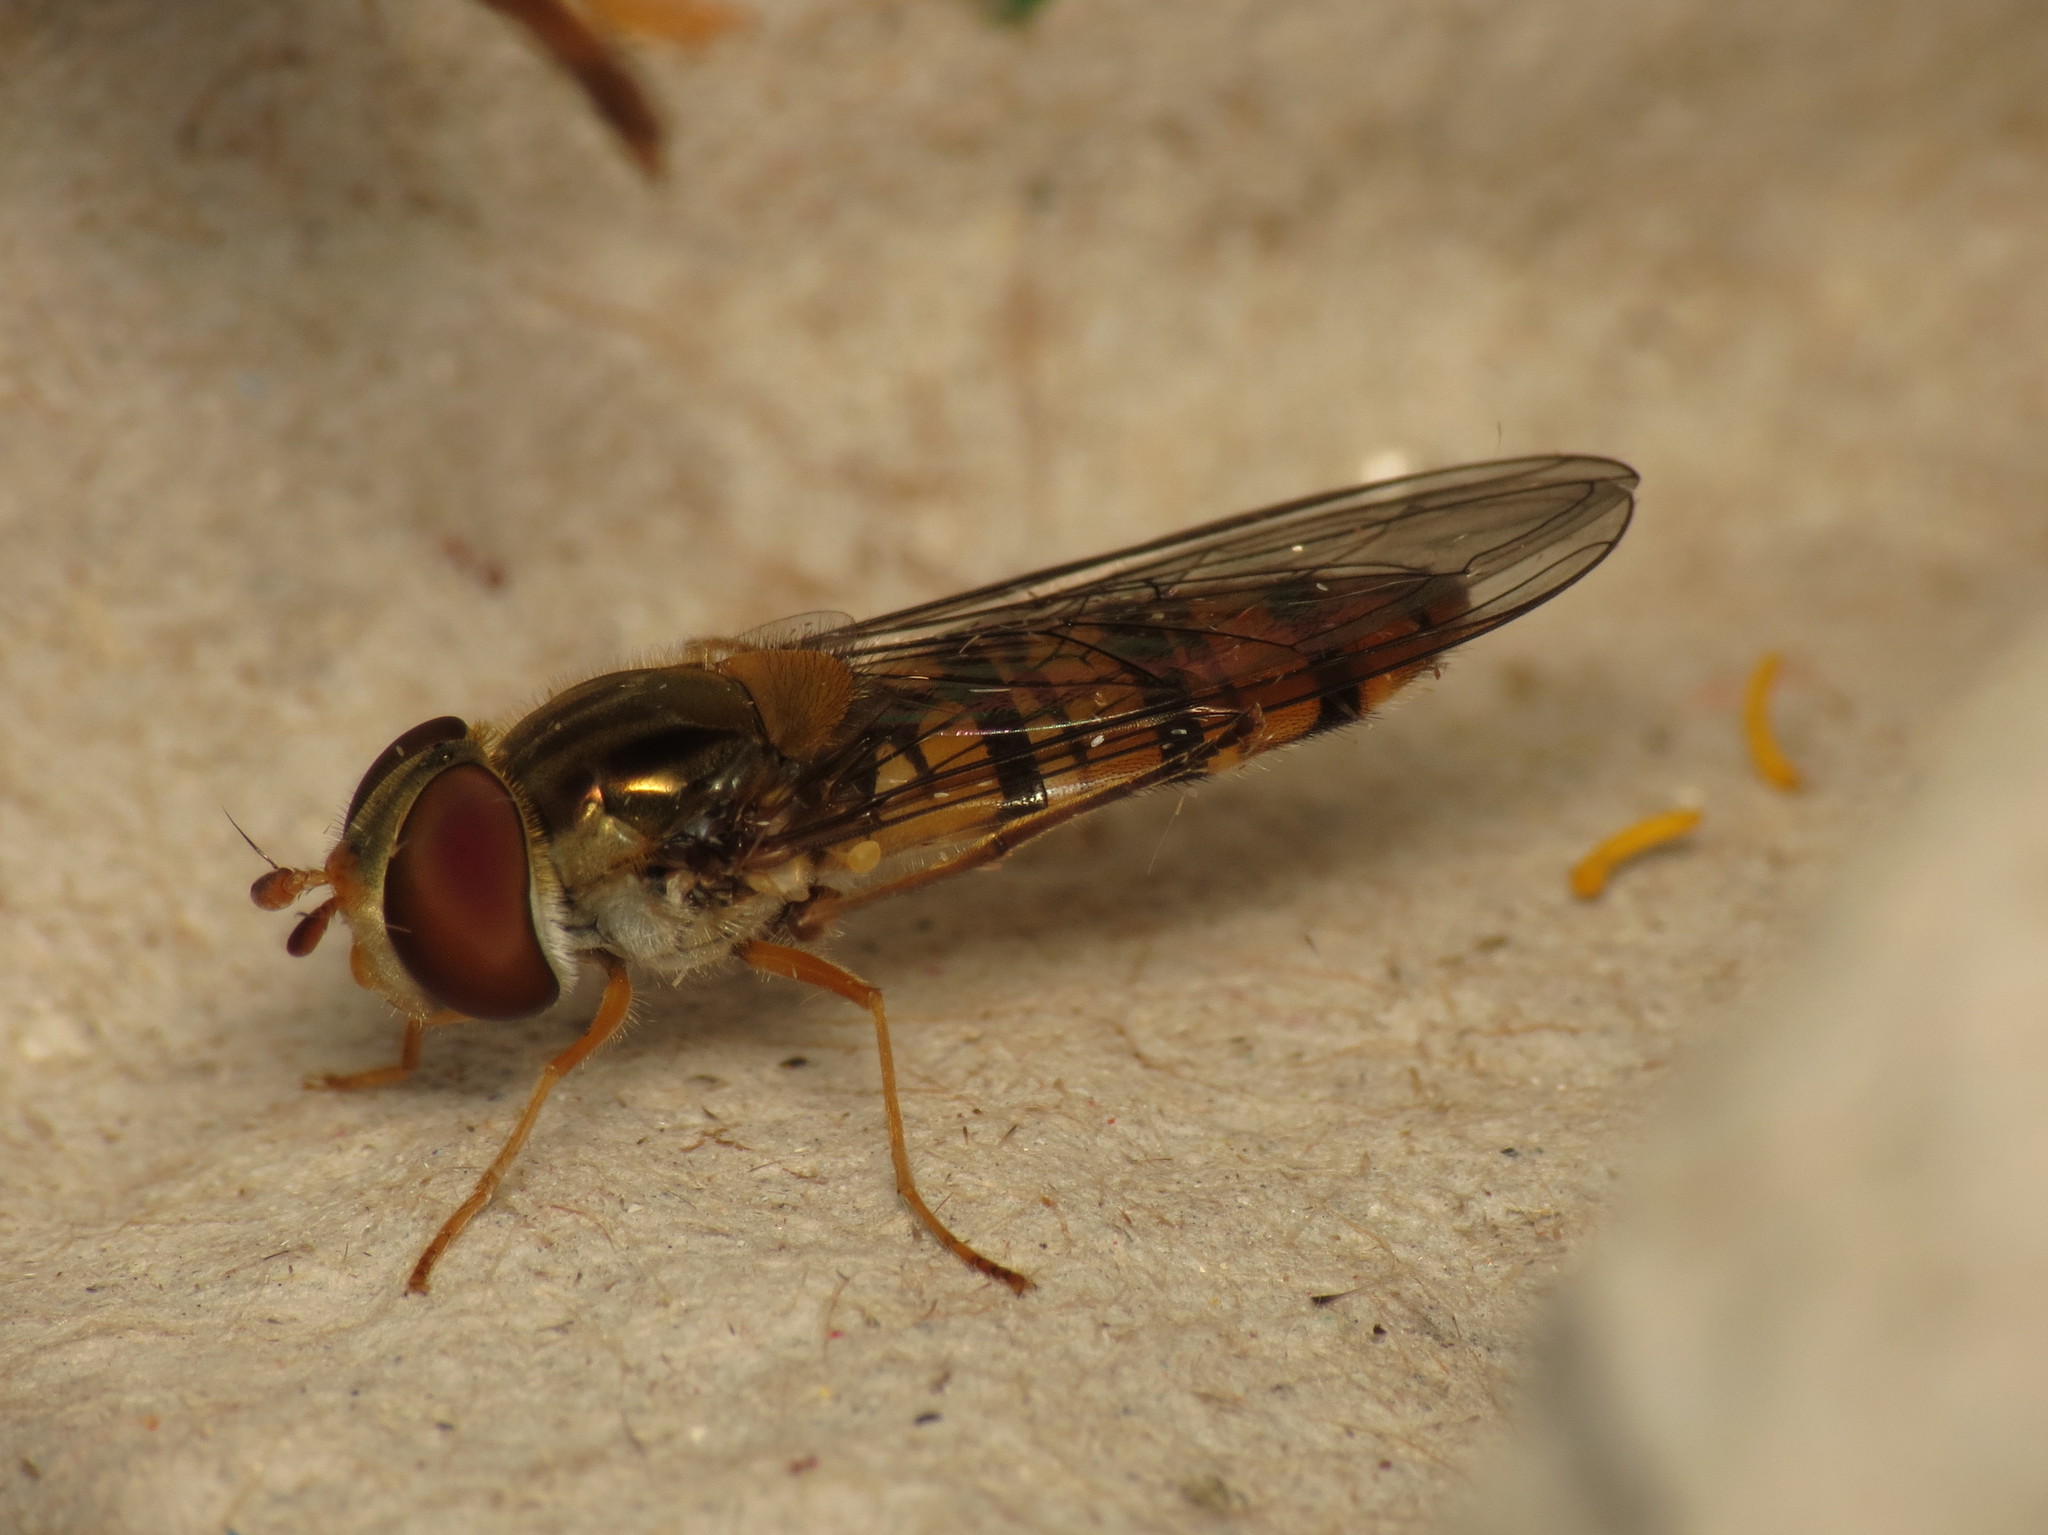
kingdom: Animalia
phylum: Arthropoda
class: Insecta
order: Diptera
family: Syrphidae
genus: Episyrphus
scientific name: Episyrphus balteatus
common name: Marmalade hoverfly
